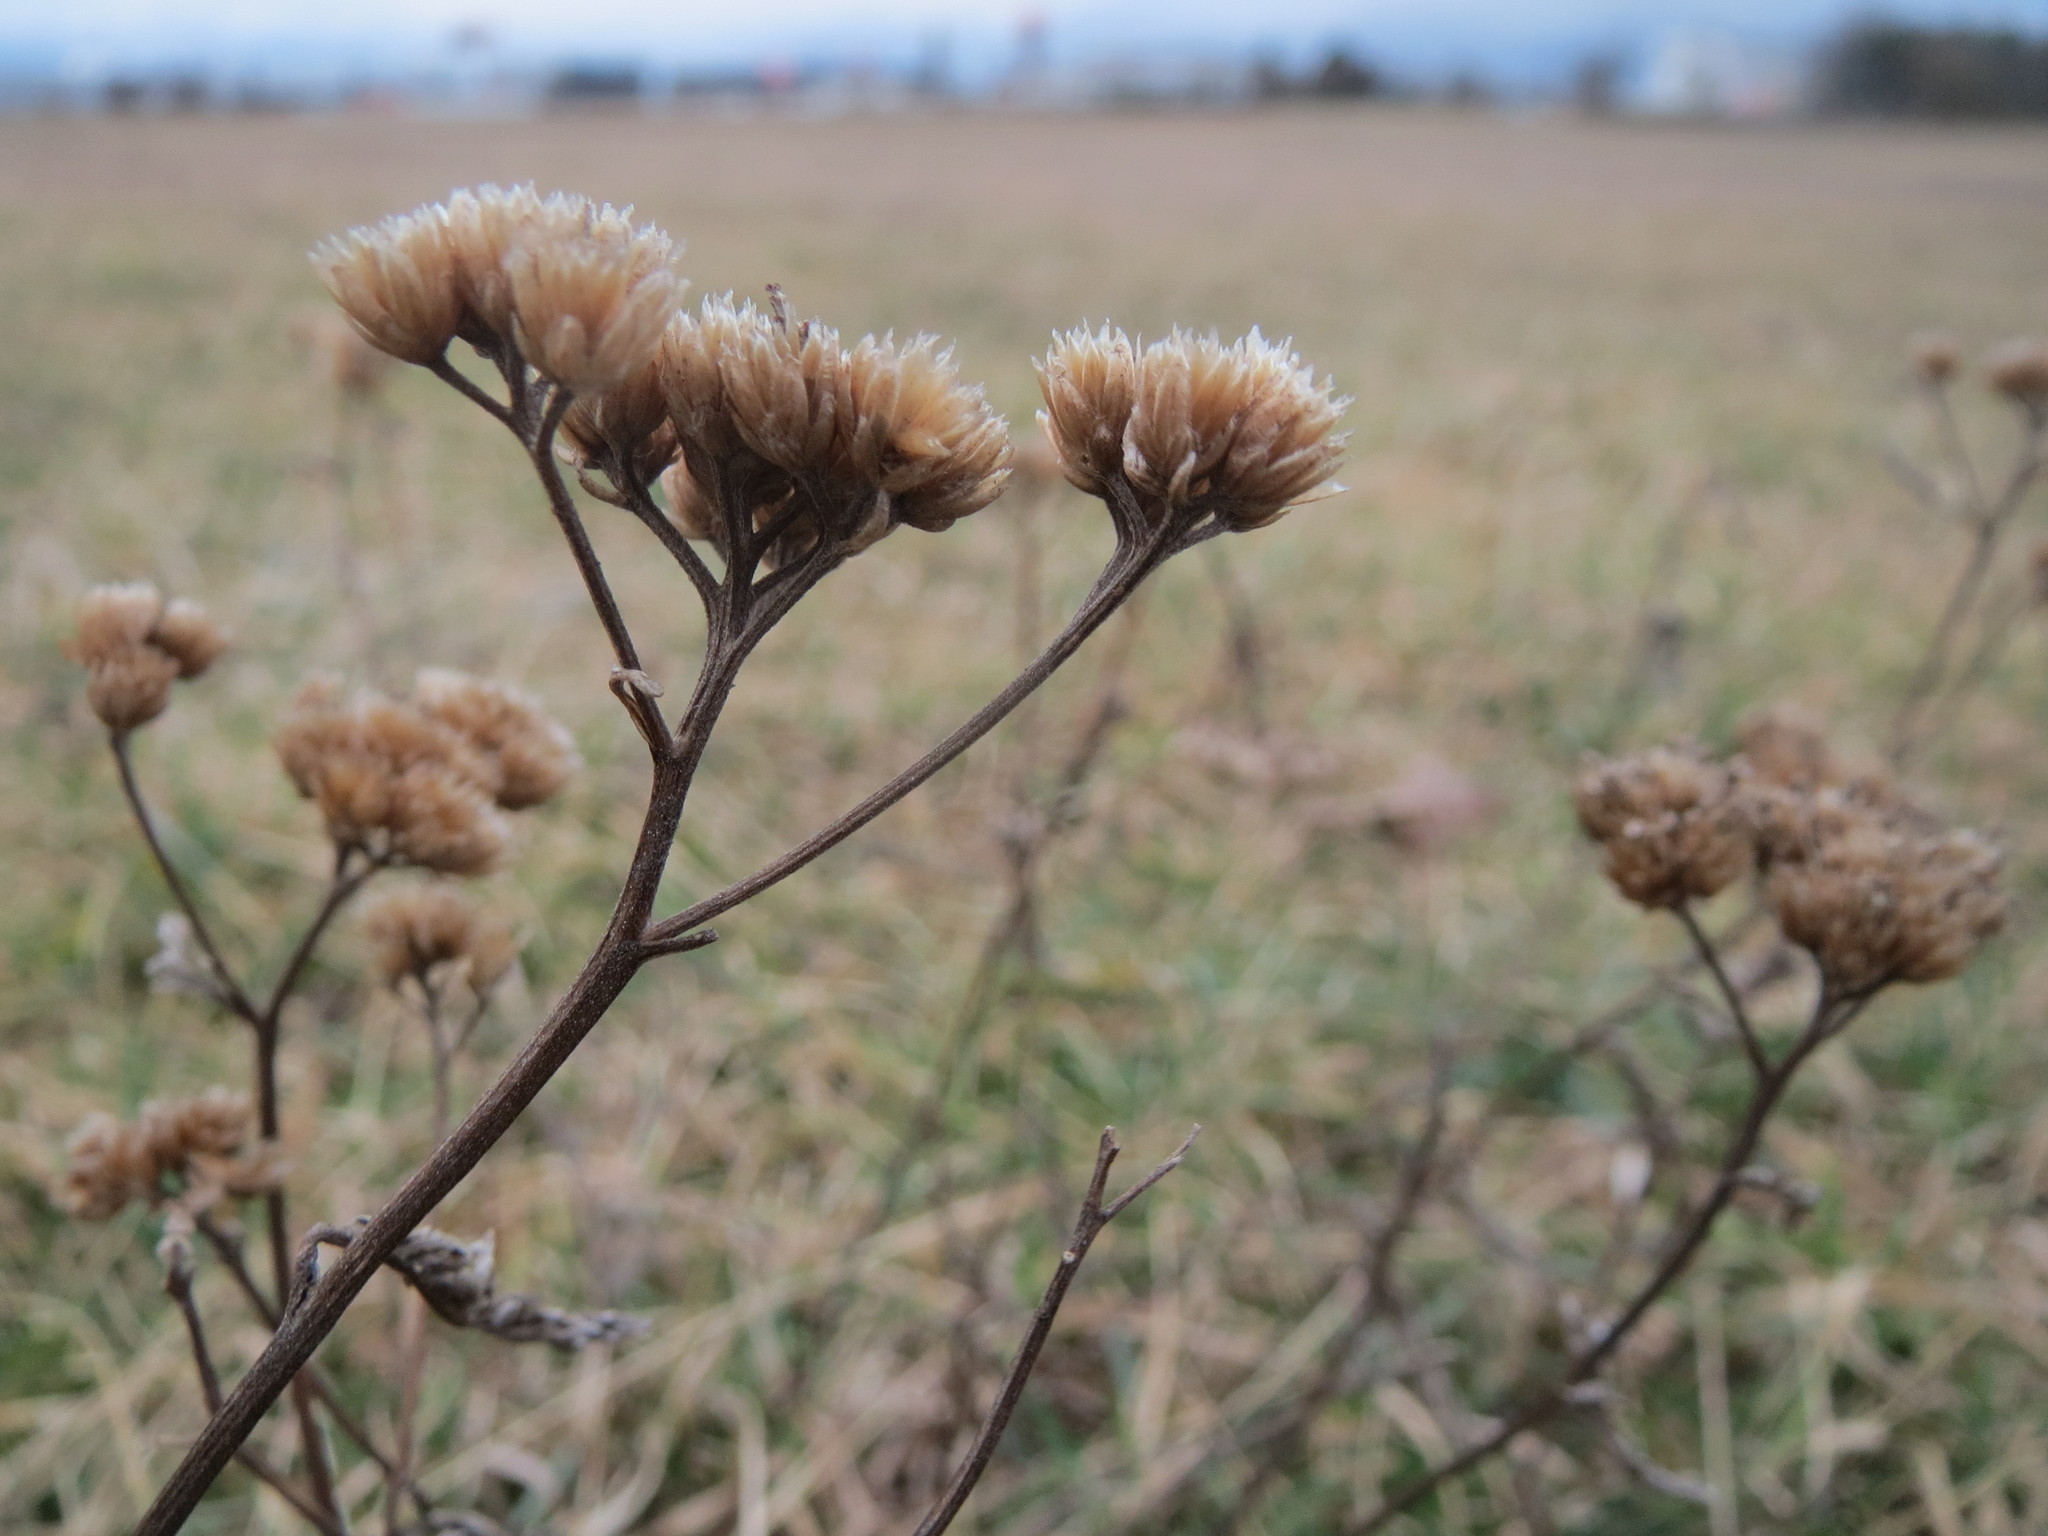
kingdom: Plantae
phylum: Tracheophyta
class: Magnoliopsida
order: Asterales
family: Asteraceae
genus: Achillea
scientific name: Achillea millefolium
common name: Yarrow
